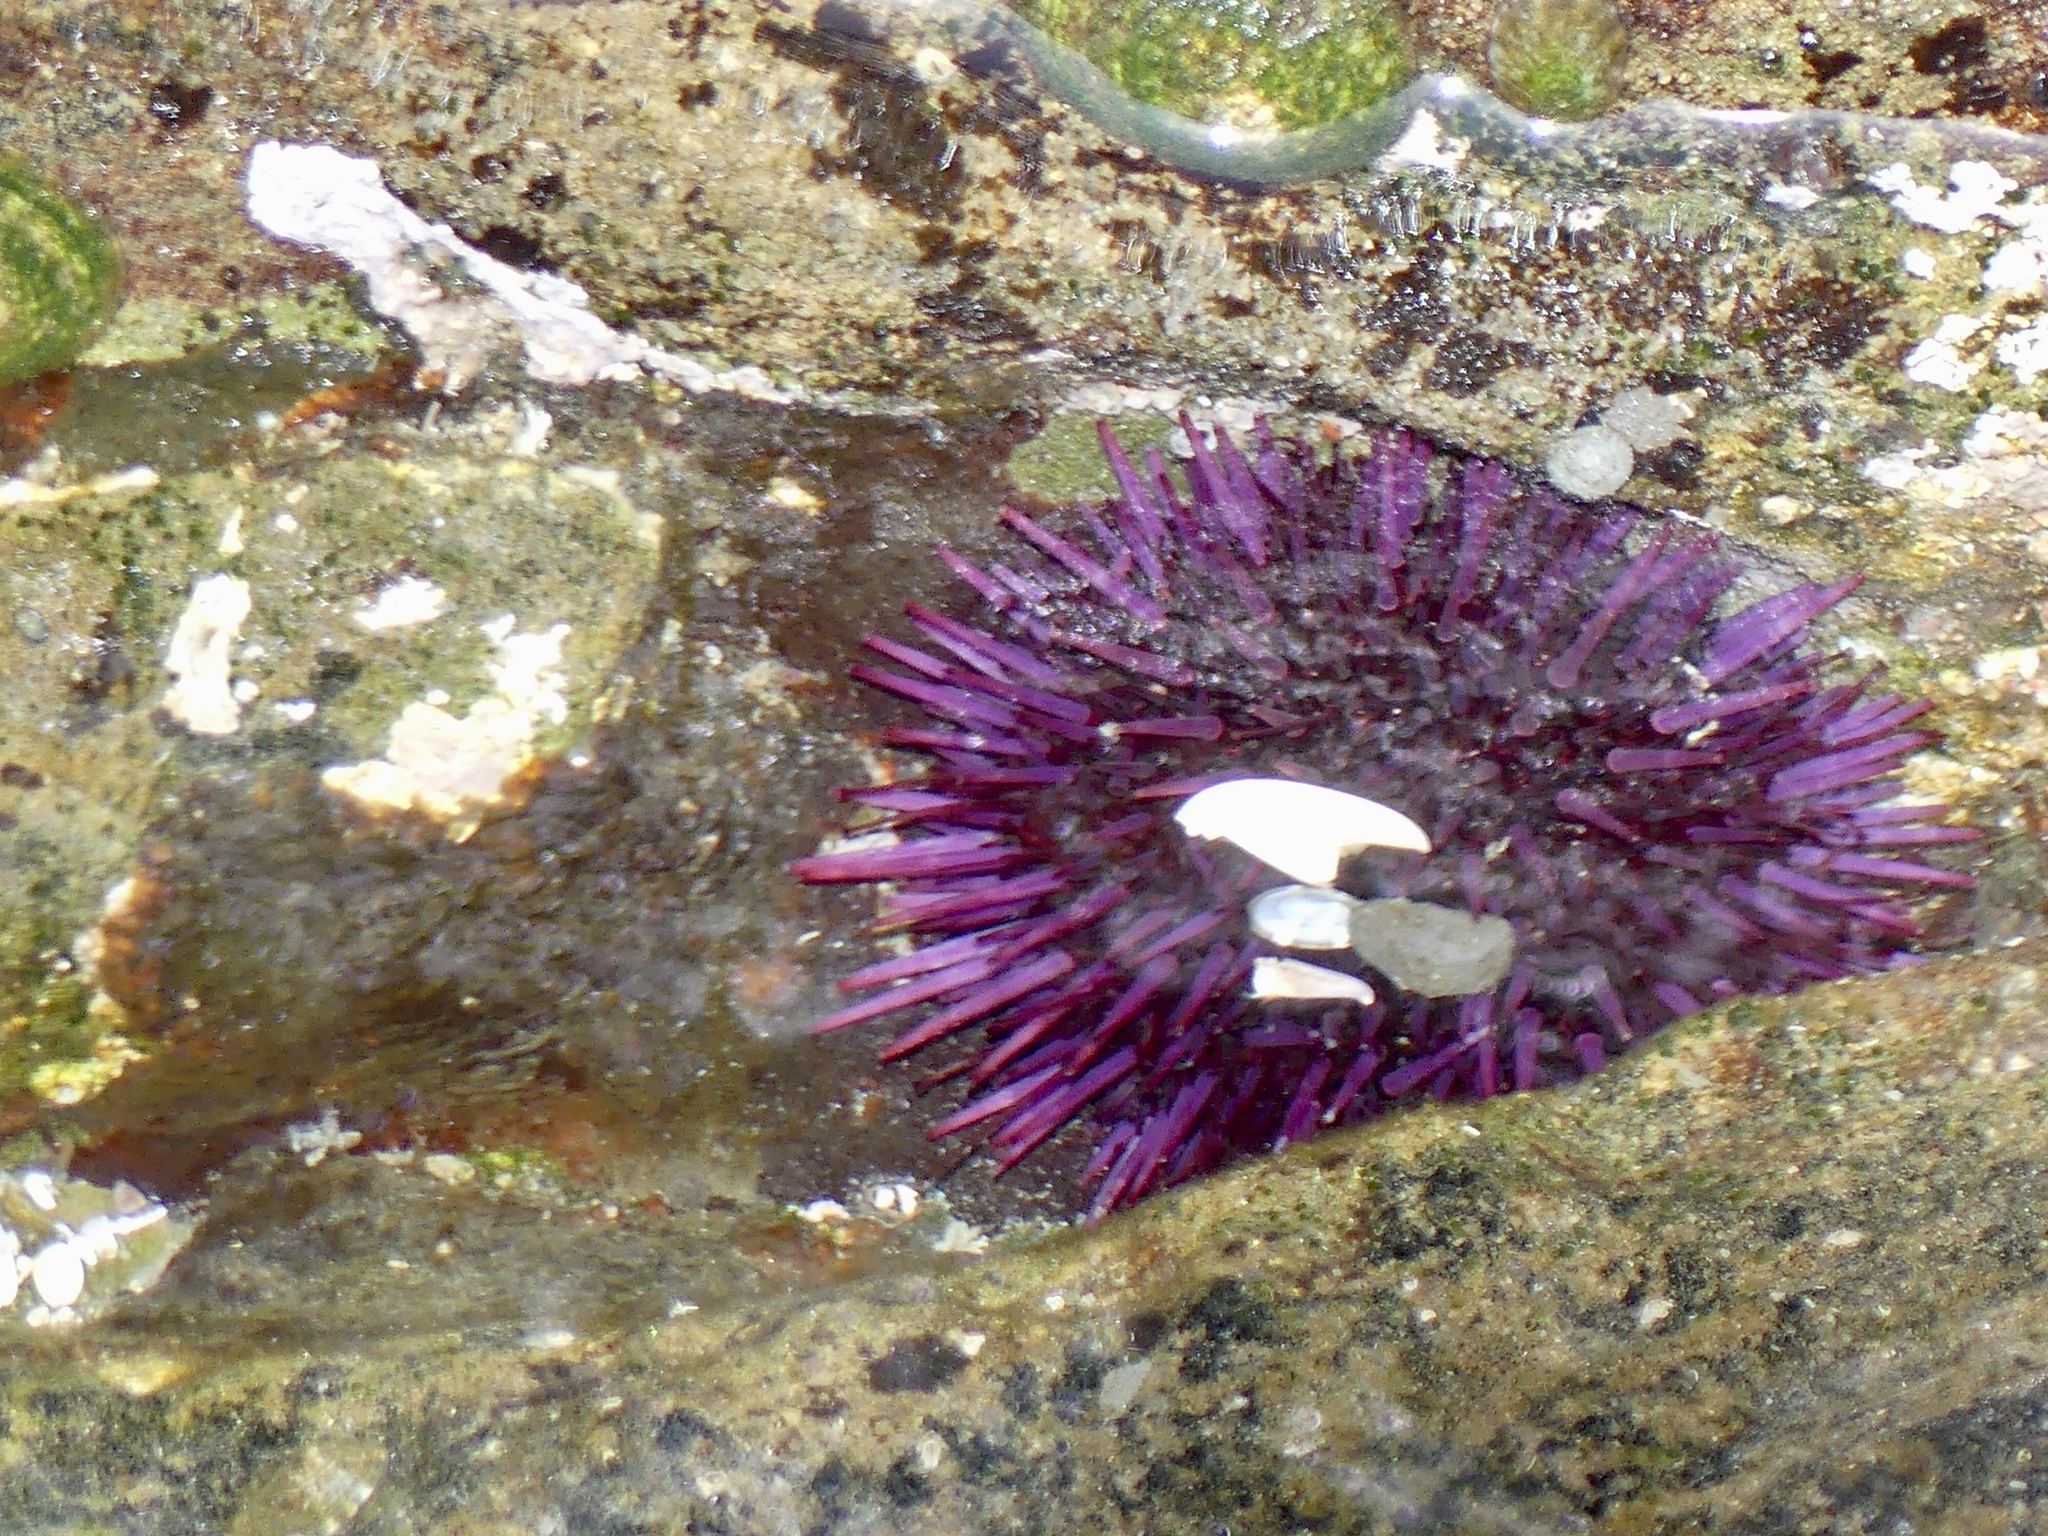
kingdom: Animalia
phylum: Echinodermata
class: Echinoidea
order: Camarodonta
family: Strongylocentrotidae
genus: Strongylocentrotus
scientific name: Strongylocentrotus purpuratus
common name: Purple sea urchin
